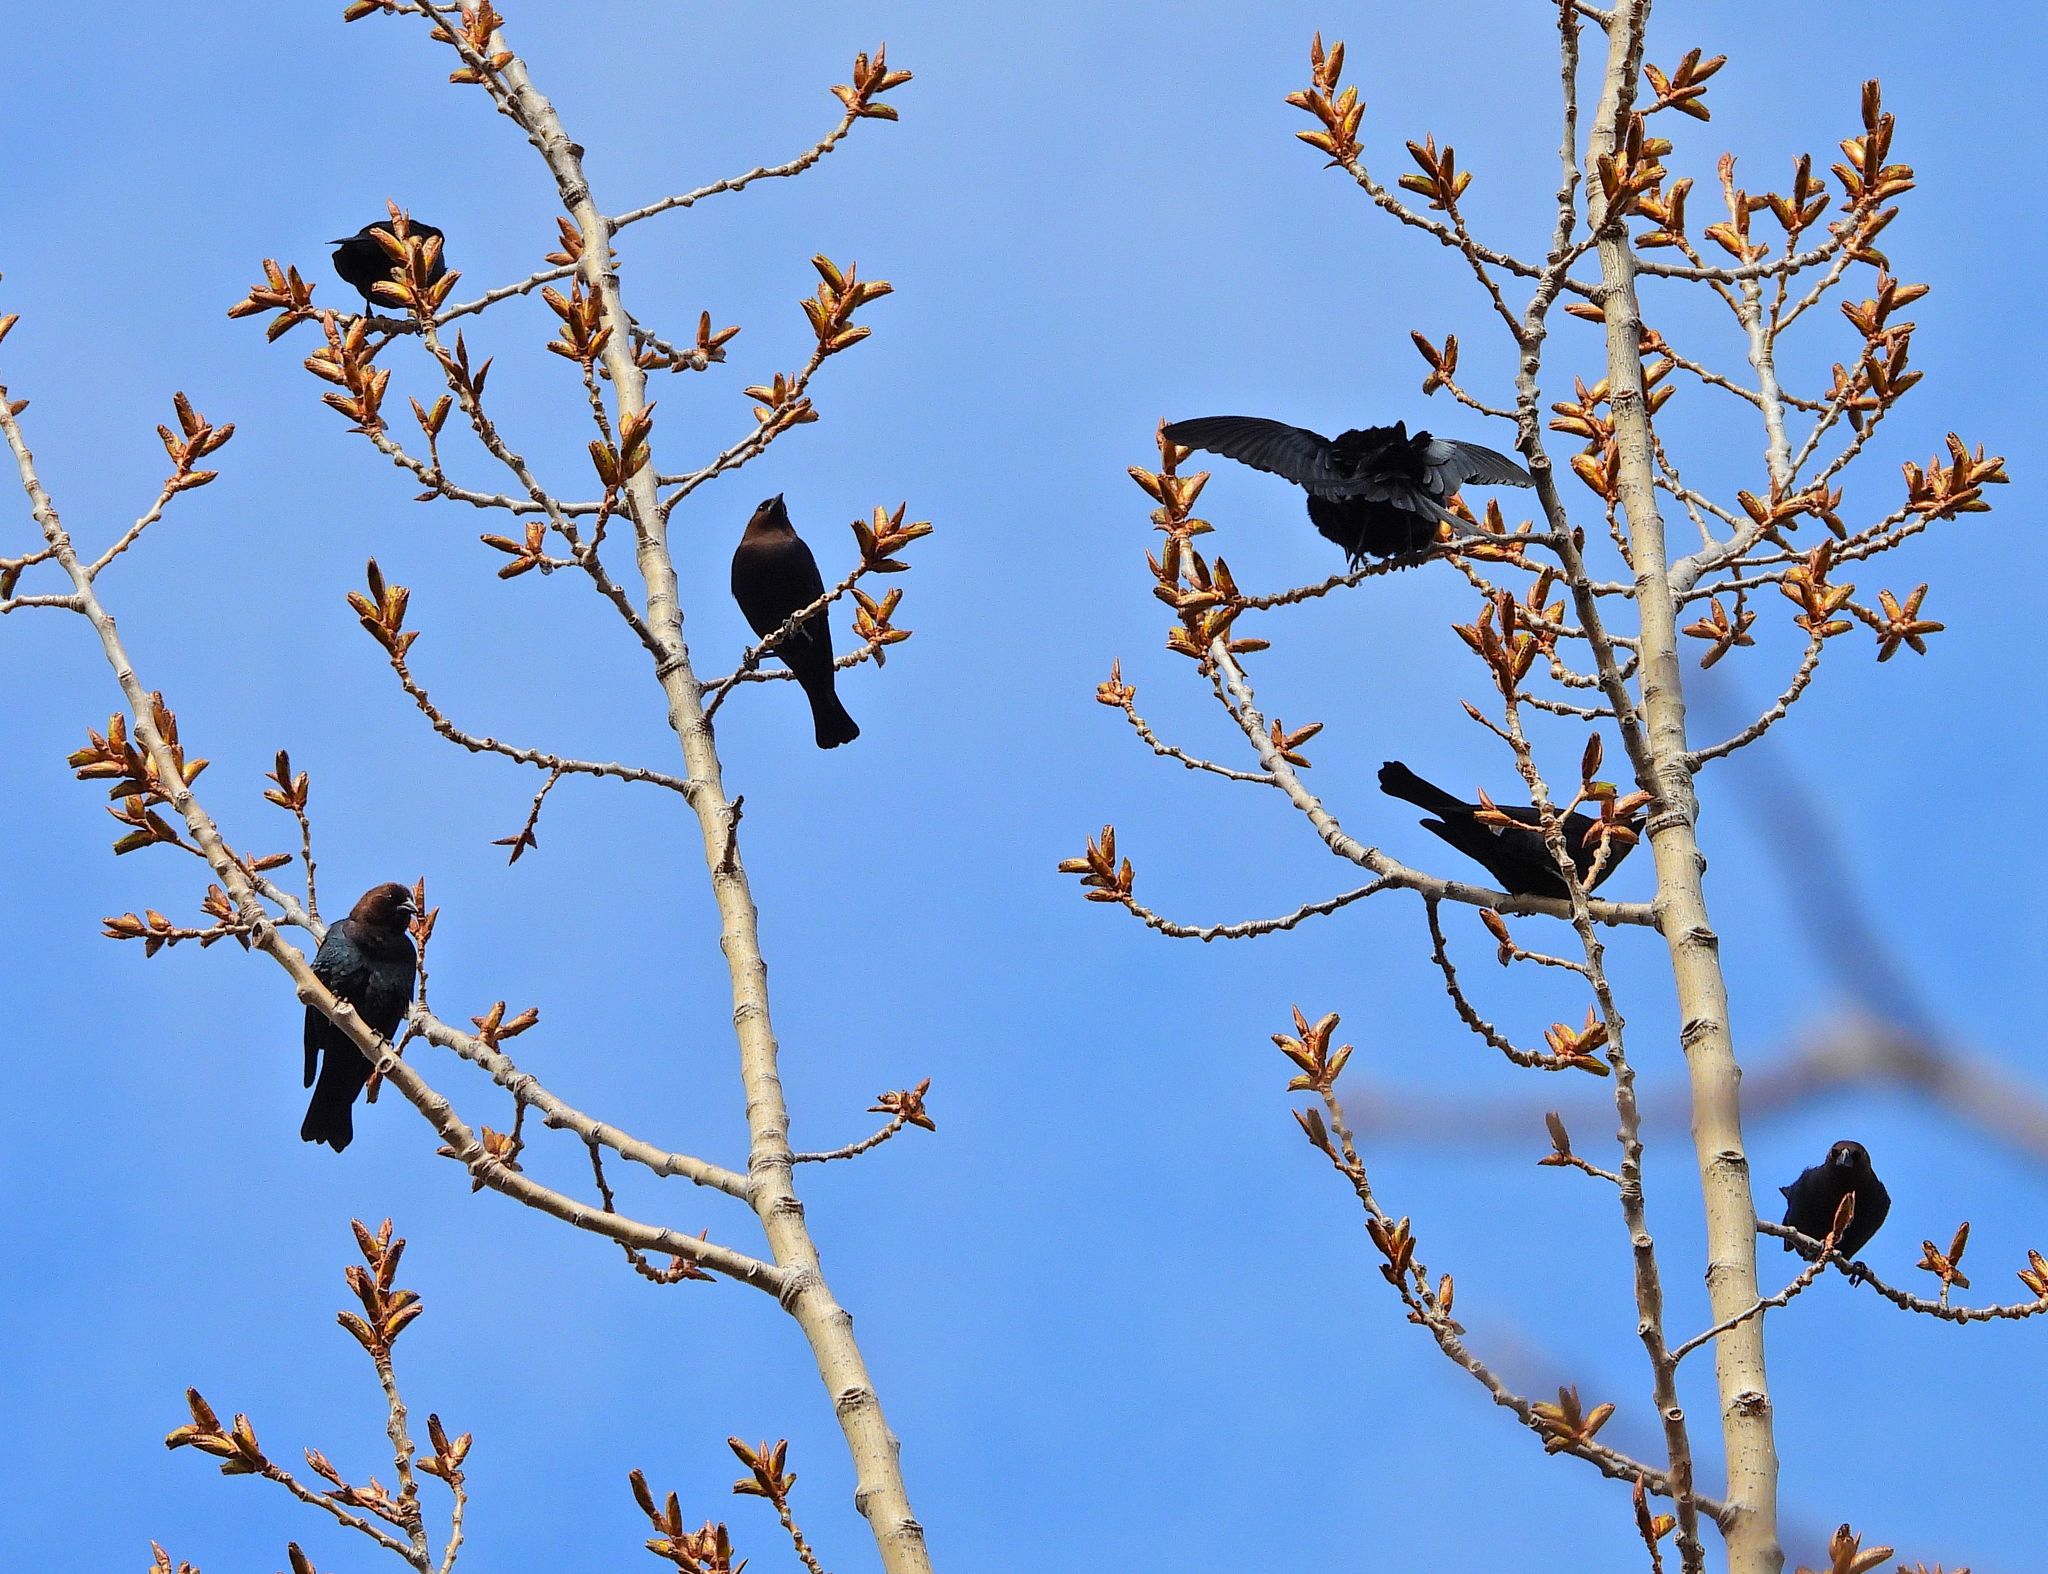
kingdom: Animalia
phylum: Chordata
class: Aves
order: Passeriformes
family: Icteridae
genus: Molothrus
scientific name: Molothrus ater
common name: Brown-headed cowbird
